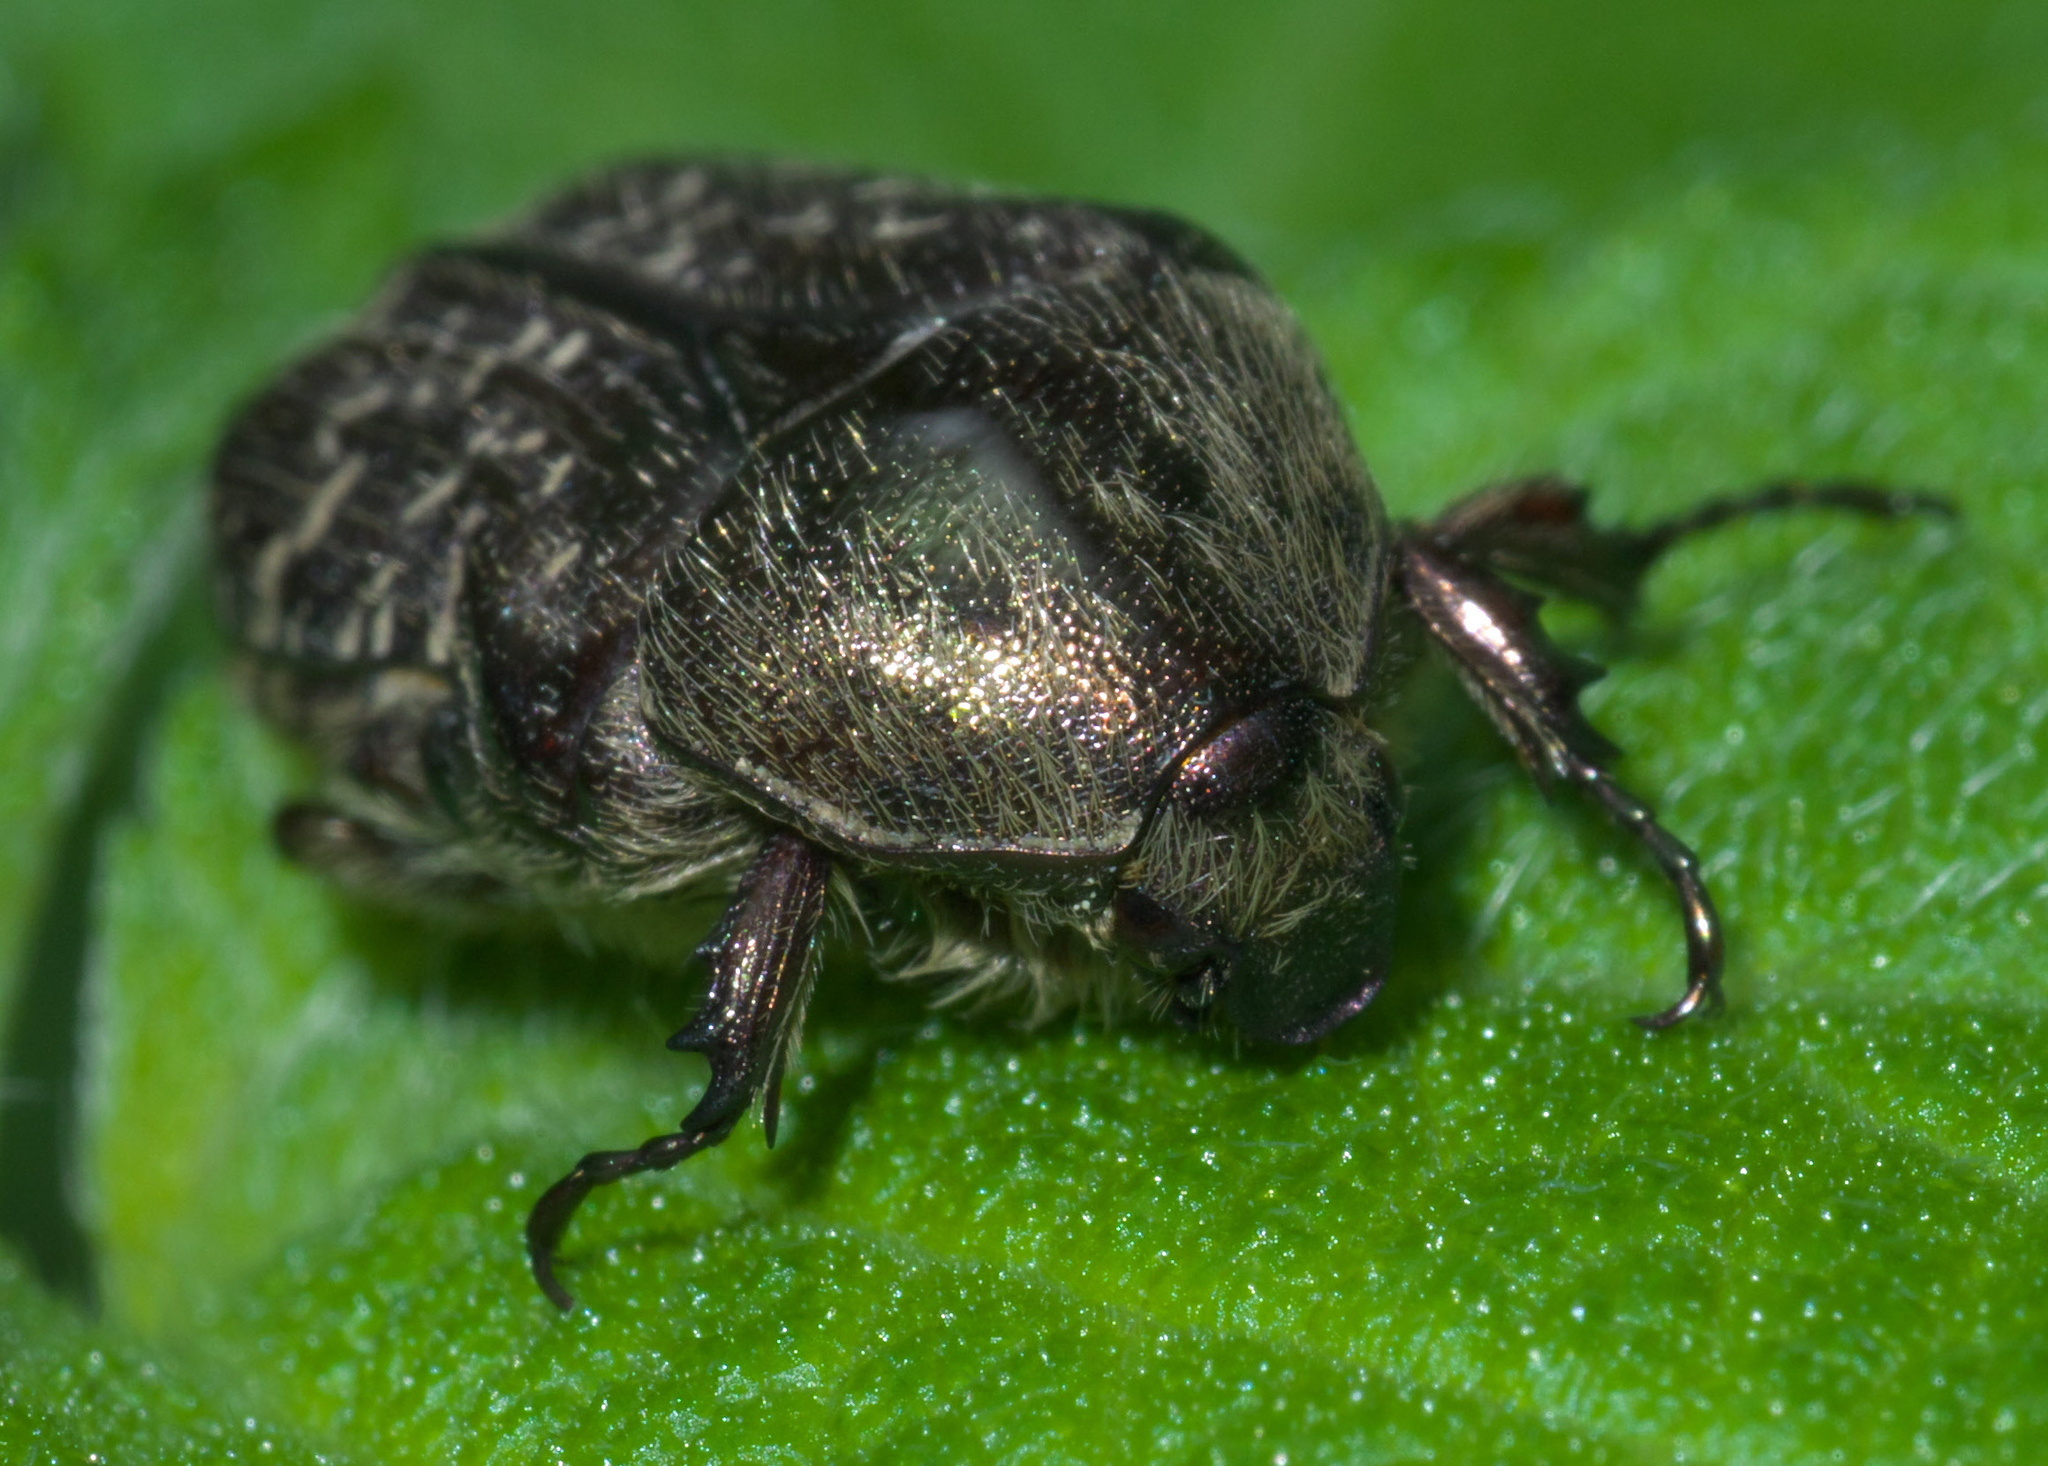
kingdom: Animalia
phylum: Arthropoda
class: Insecta
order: Coleoptera
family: Scarabaeidae
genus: Euphoria
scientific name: Euphoria sepulcralis
